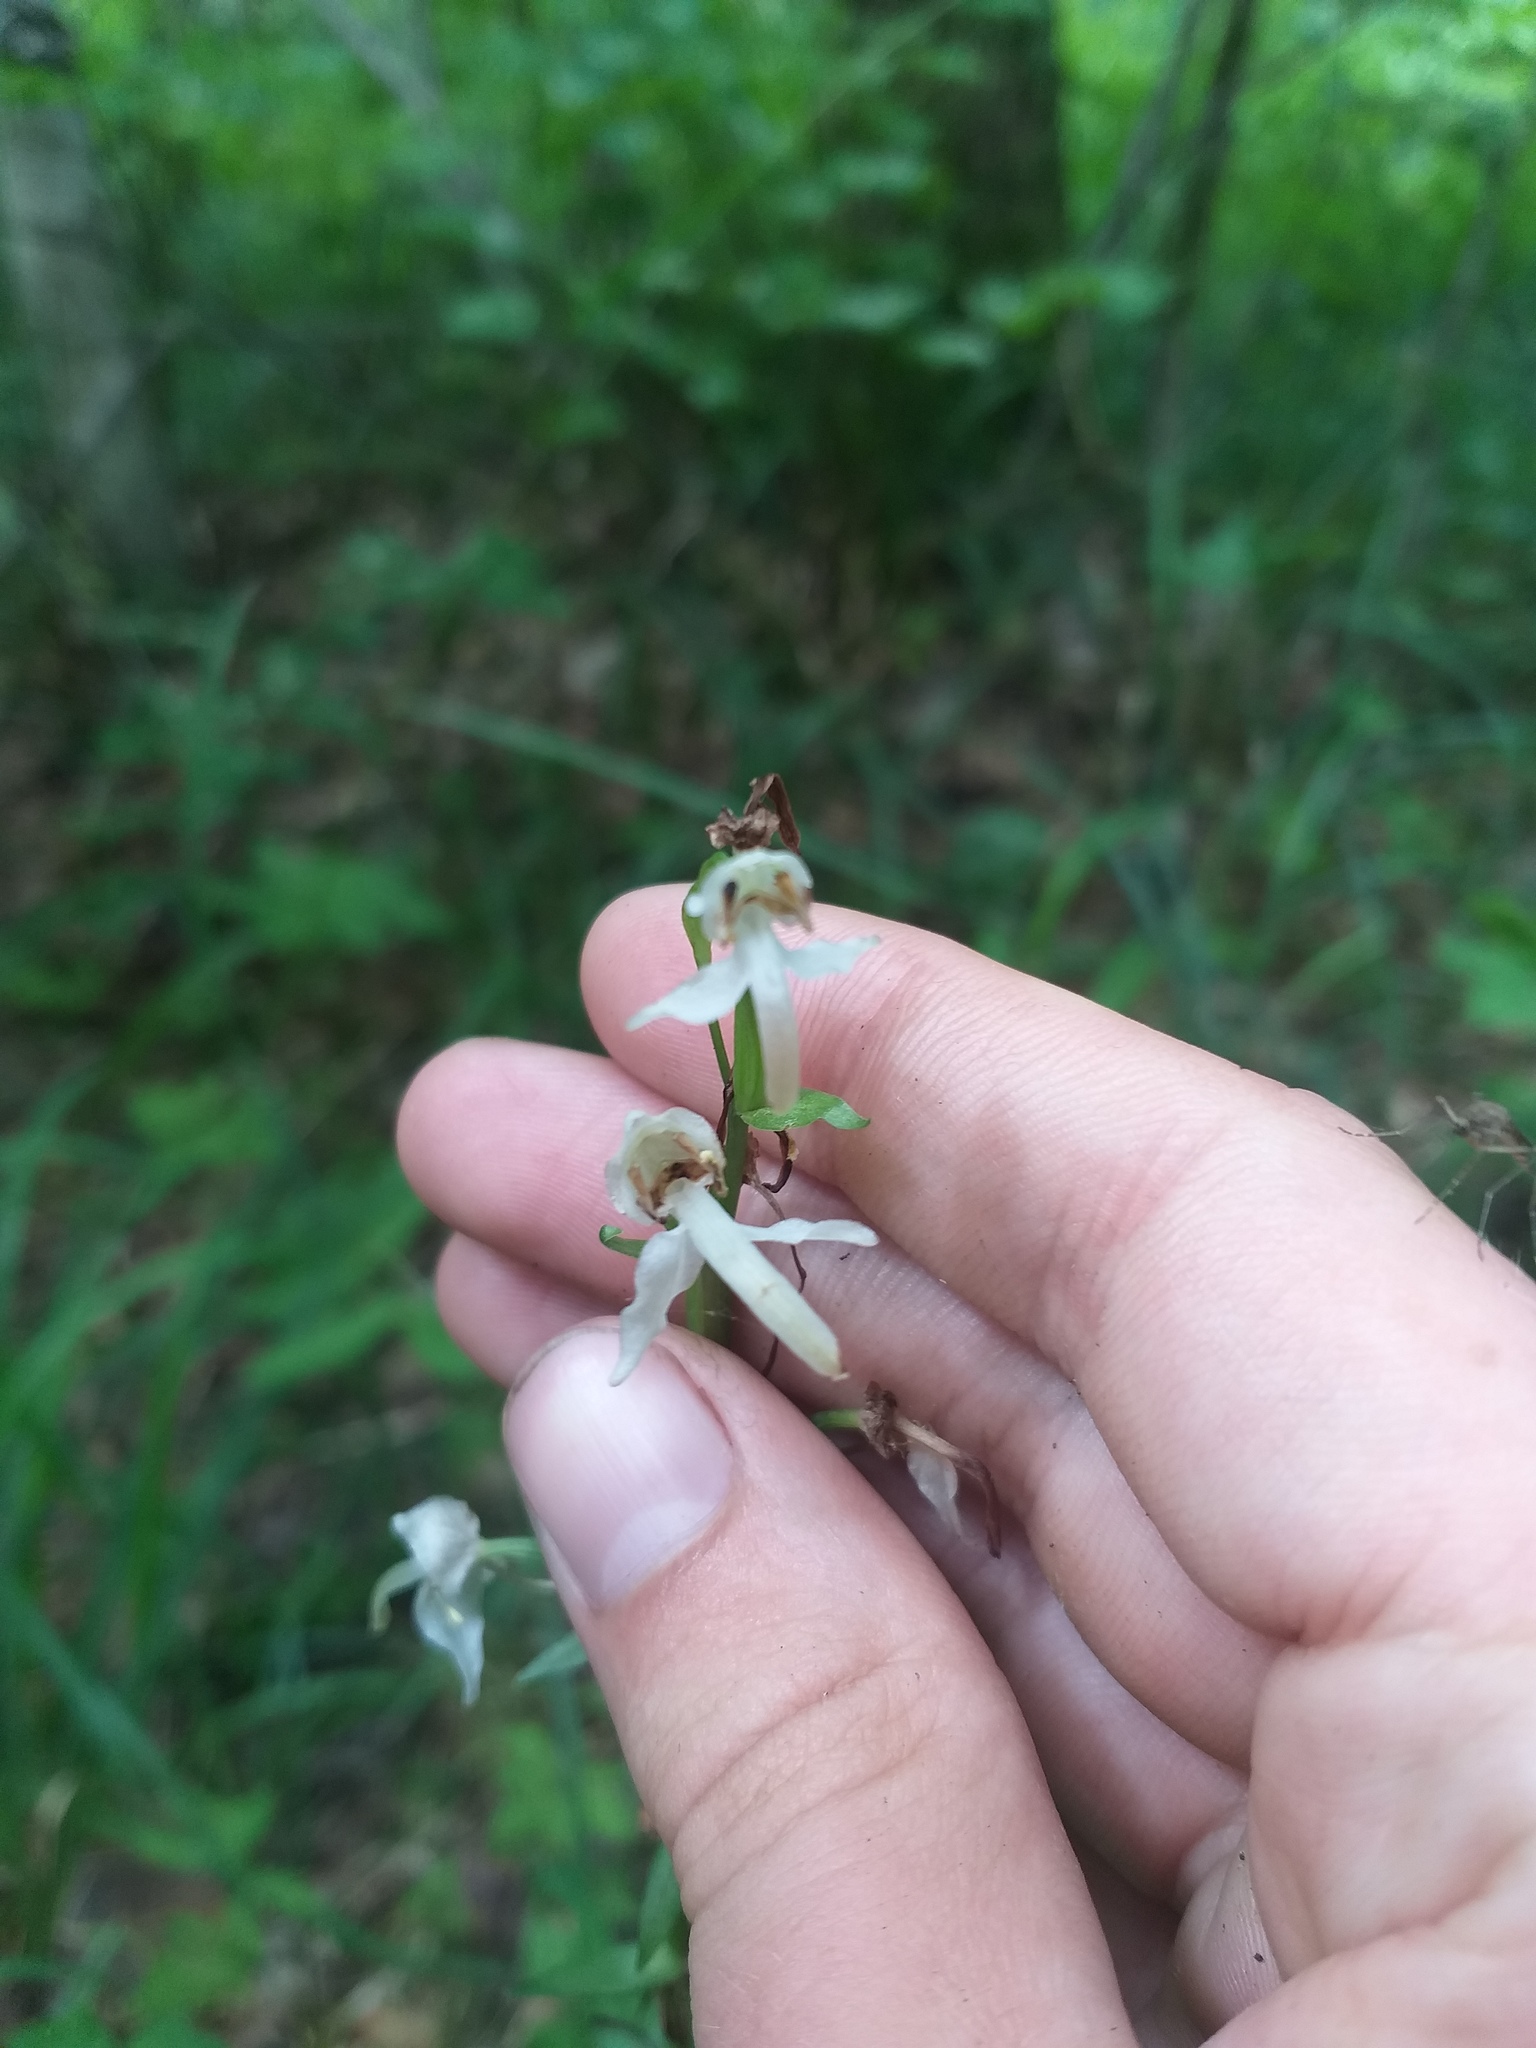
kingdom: Plantae
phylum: Tracheophyta
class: Liliopsida
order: Asparagales
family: Orchidaceae
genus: Platanthera
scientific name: Platanthera chlorantha
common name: Greater butterfly-orchid
